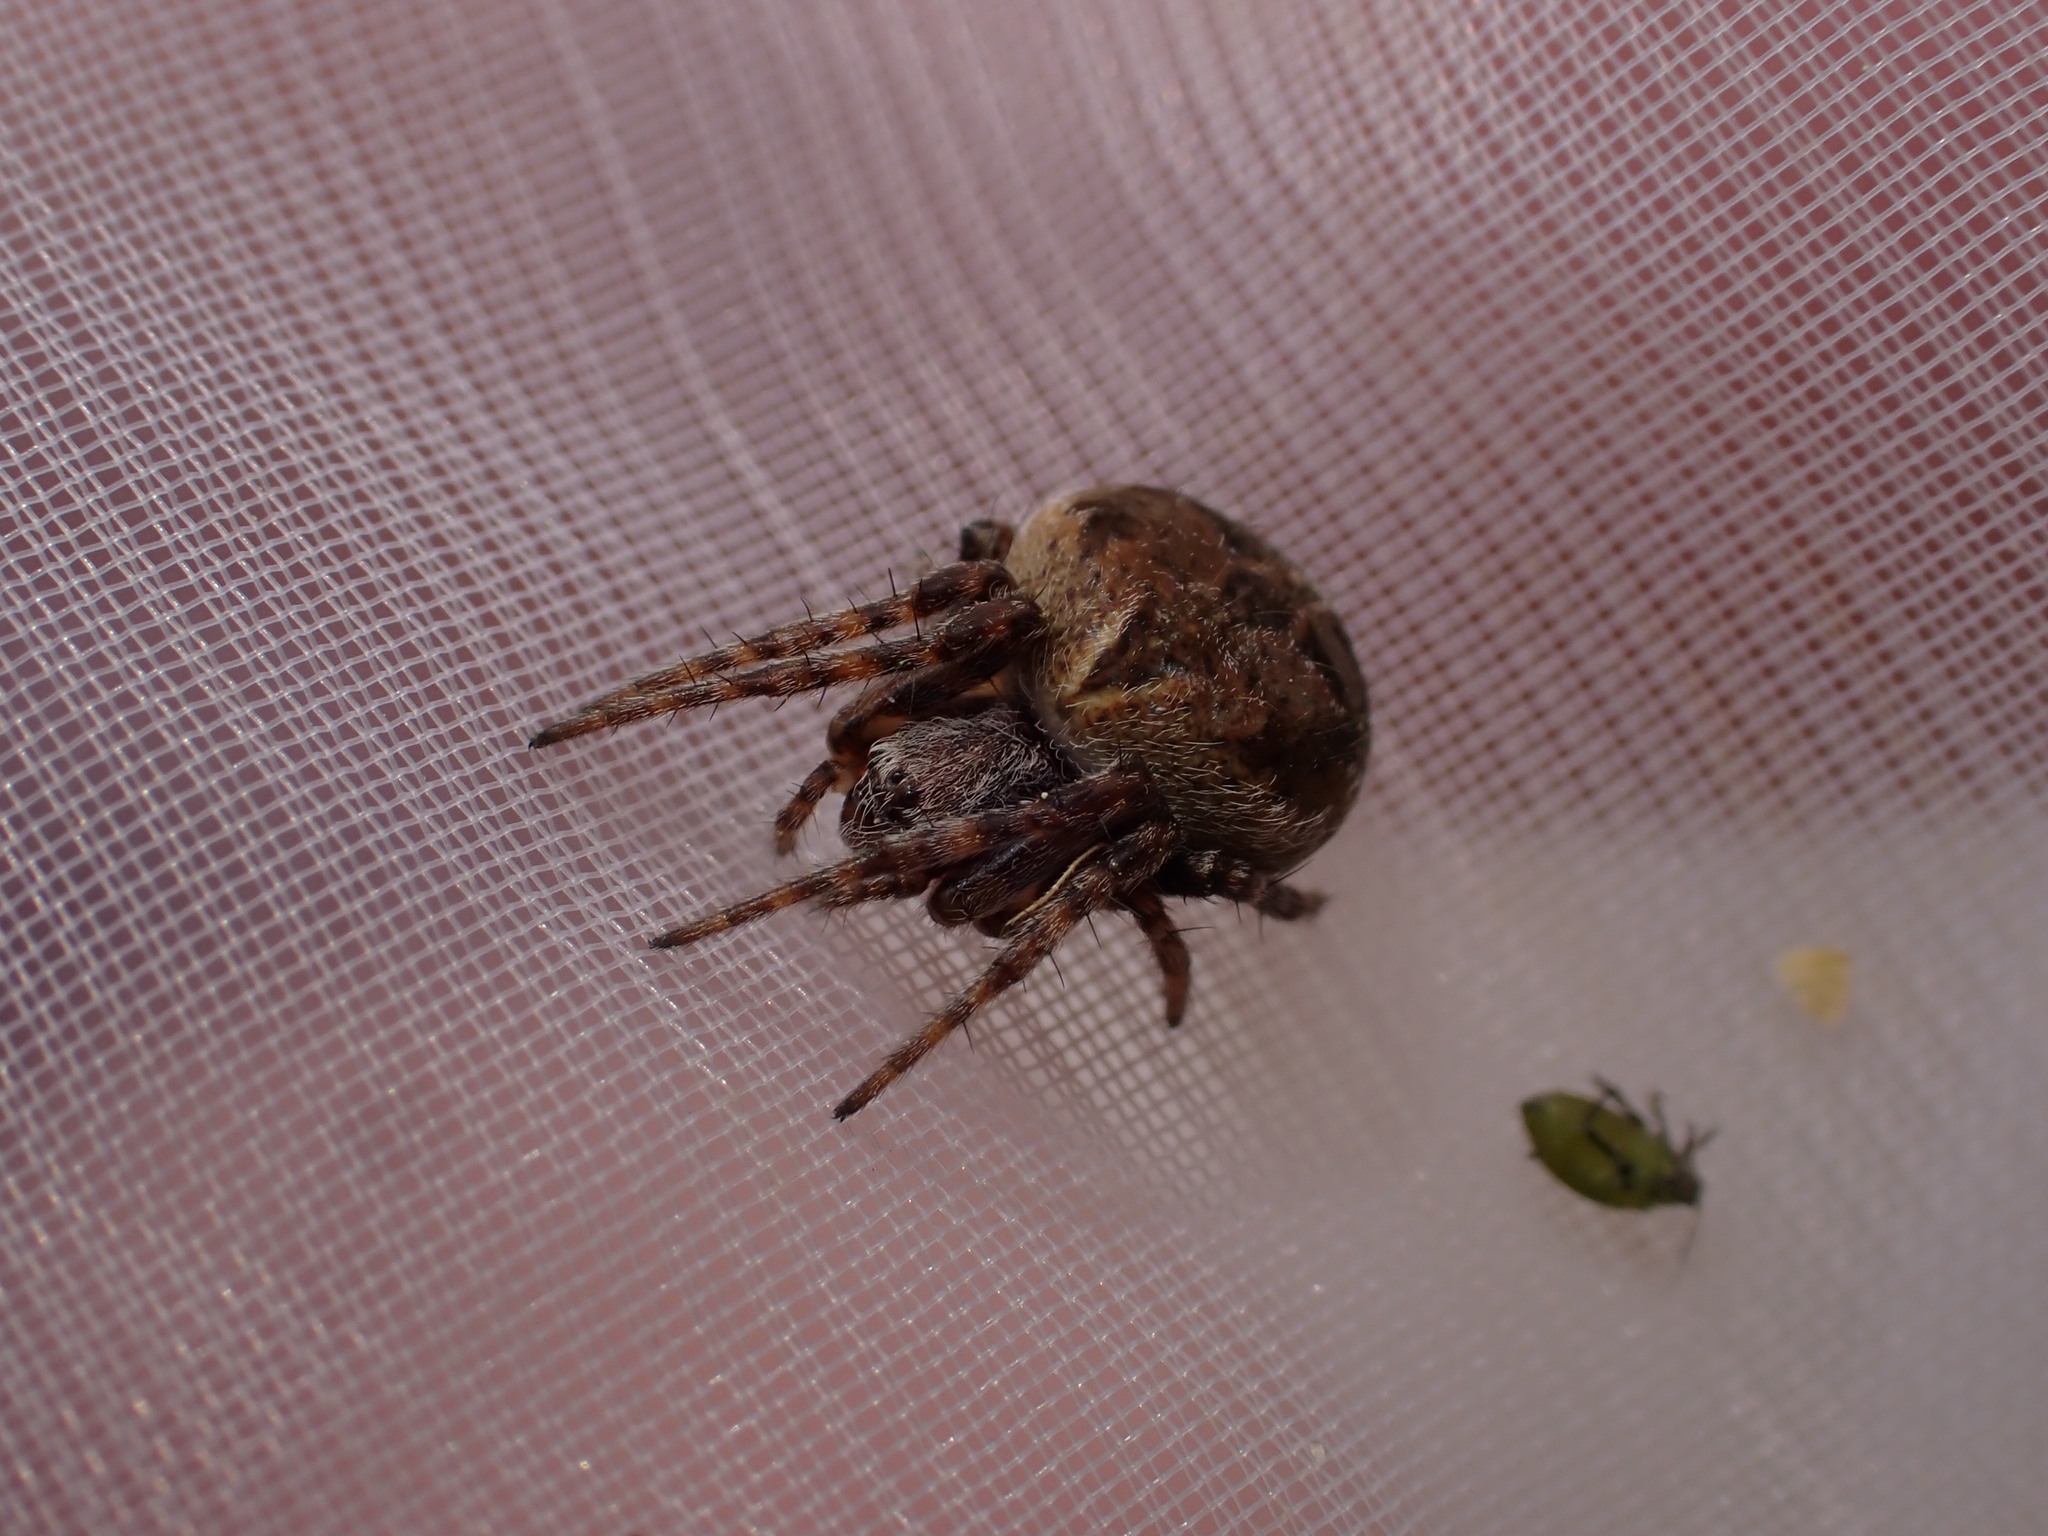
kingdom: Animalia
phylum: Arthropoda
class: Arachnida
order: Araneae
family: Araneidae
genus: Agalenatea
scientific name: Agalenatea redii
